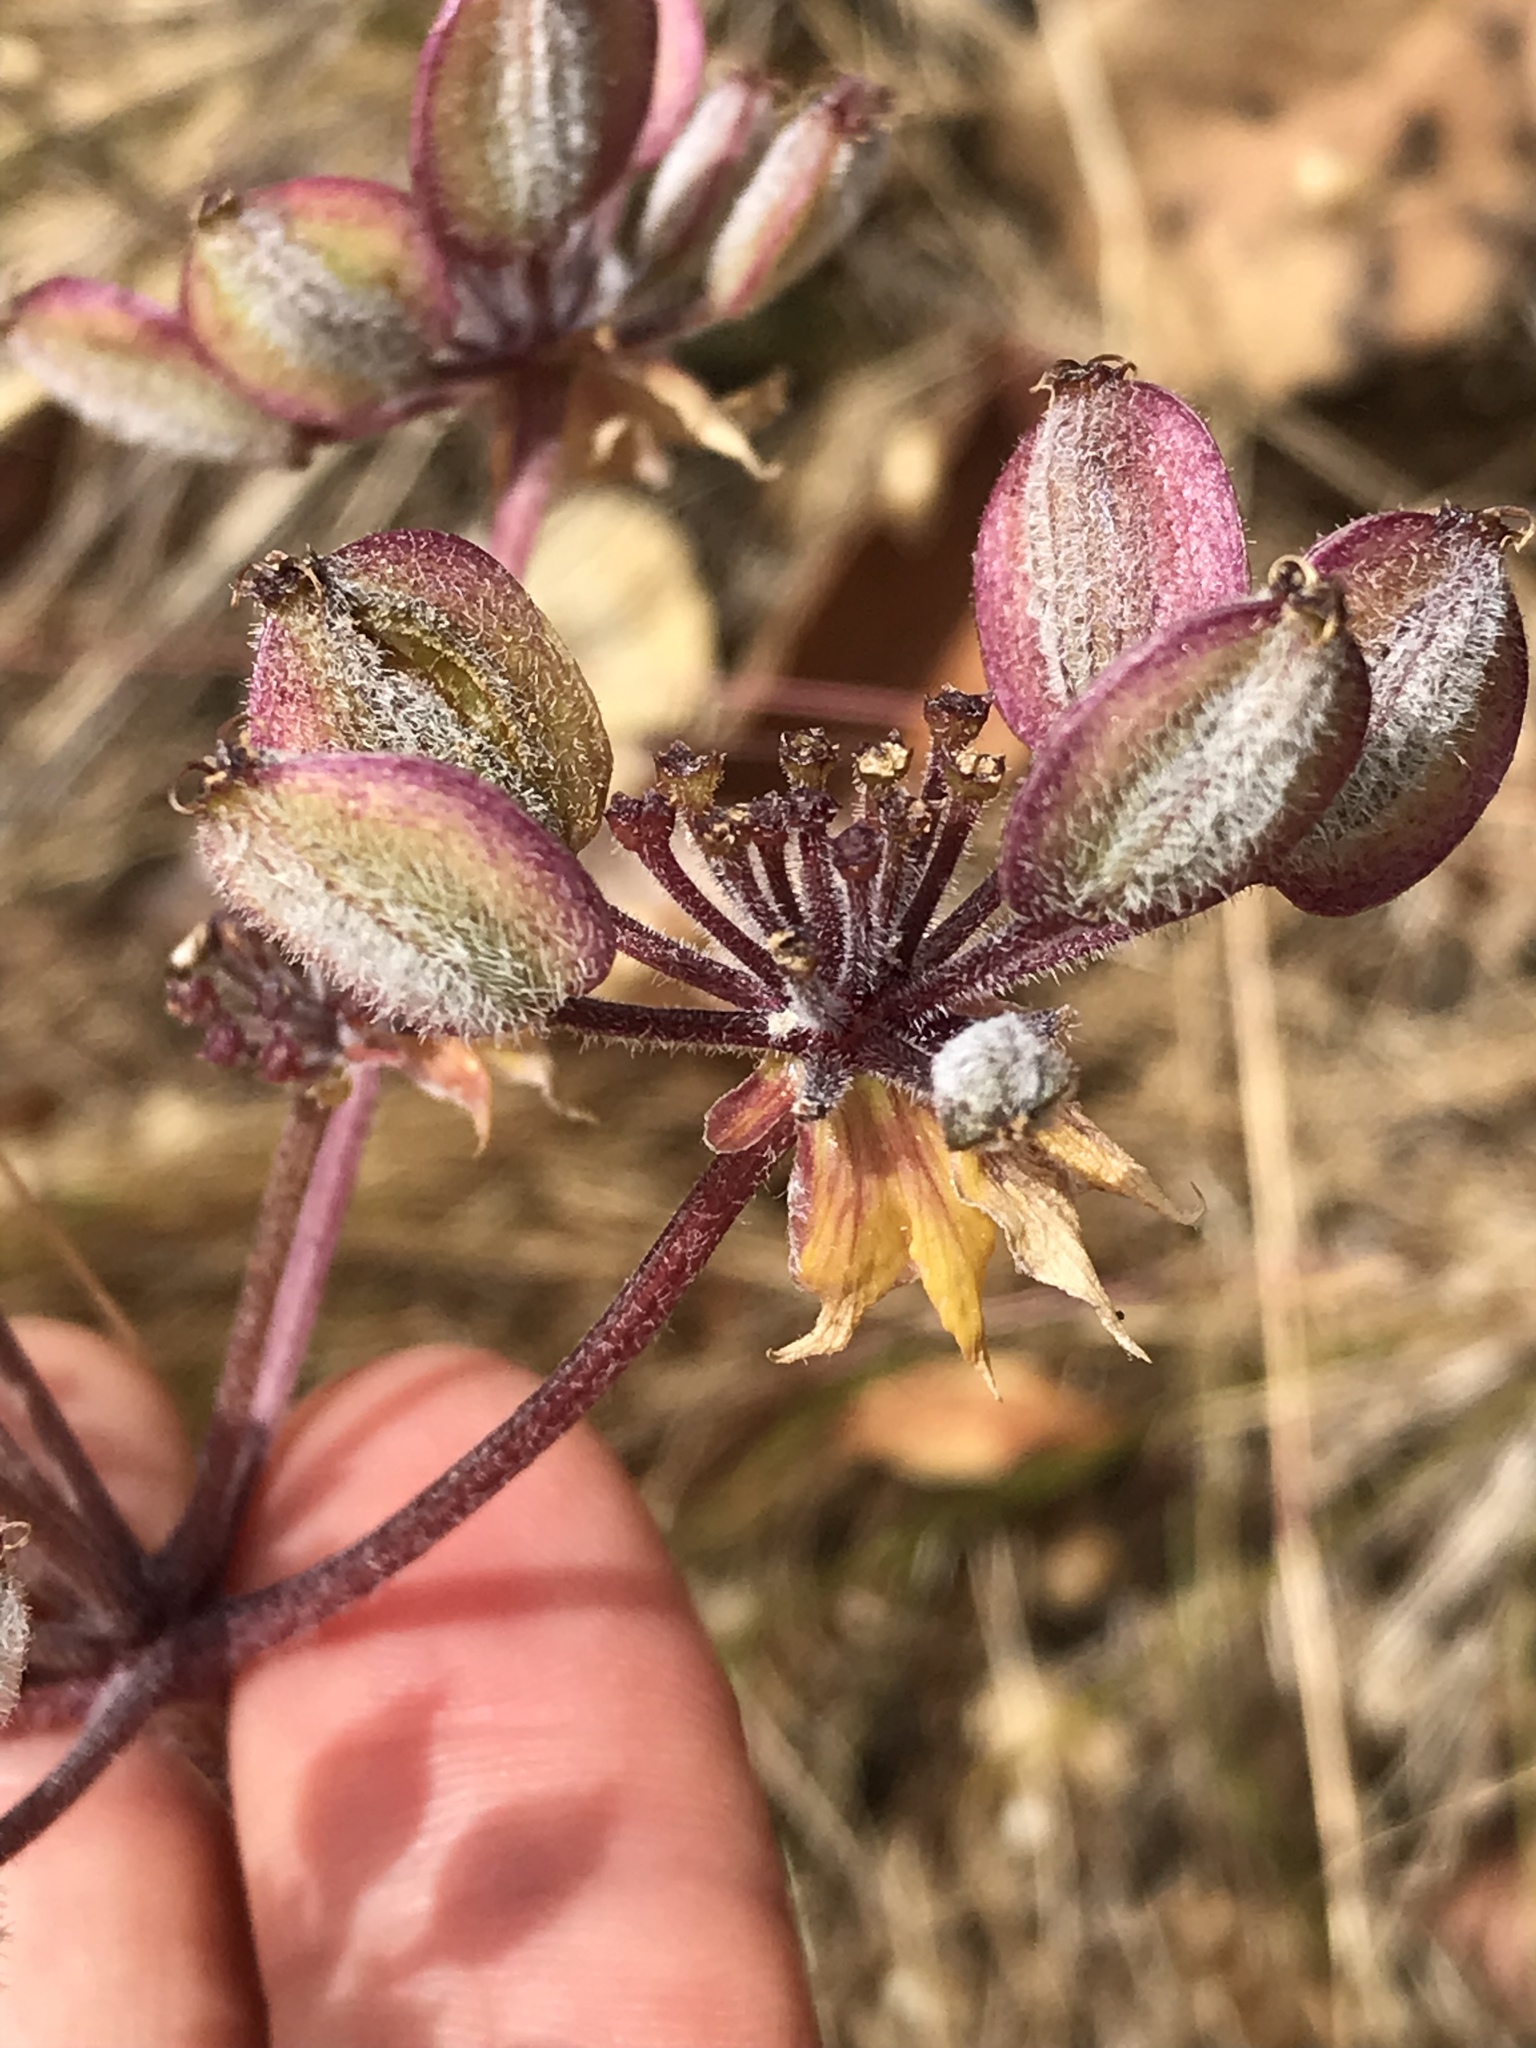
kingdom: Plantae
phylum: Tracheophyta
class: Magnoliopsida
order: Apiales
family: Apiaceae
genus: Lomatium
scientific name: Lomatium dasycarpum
